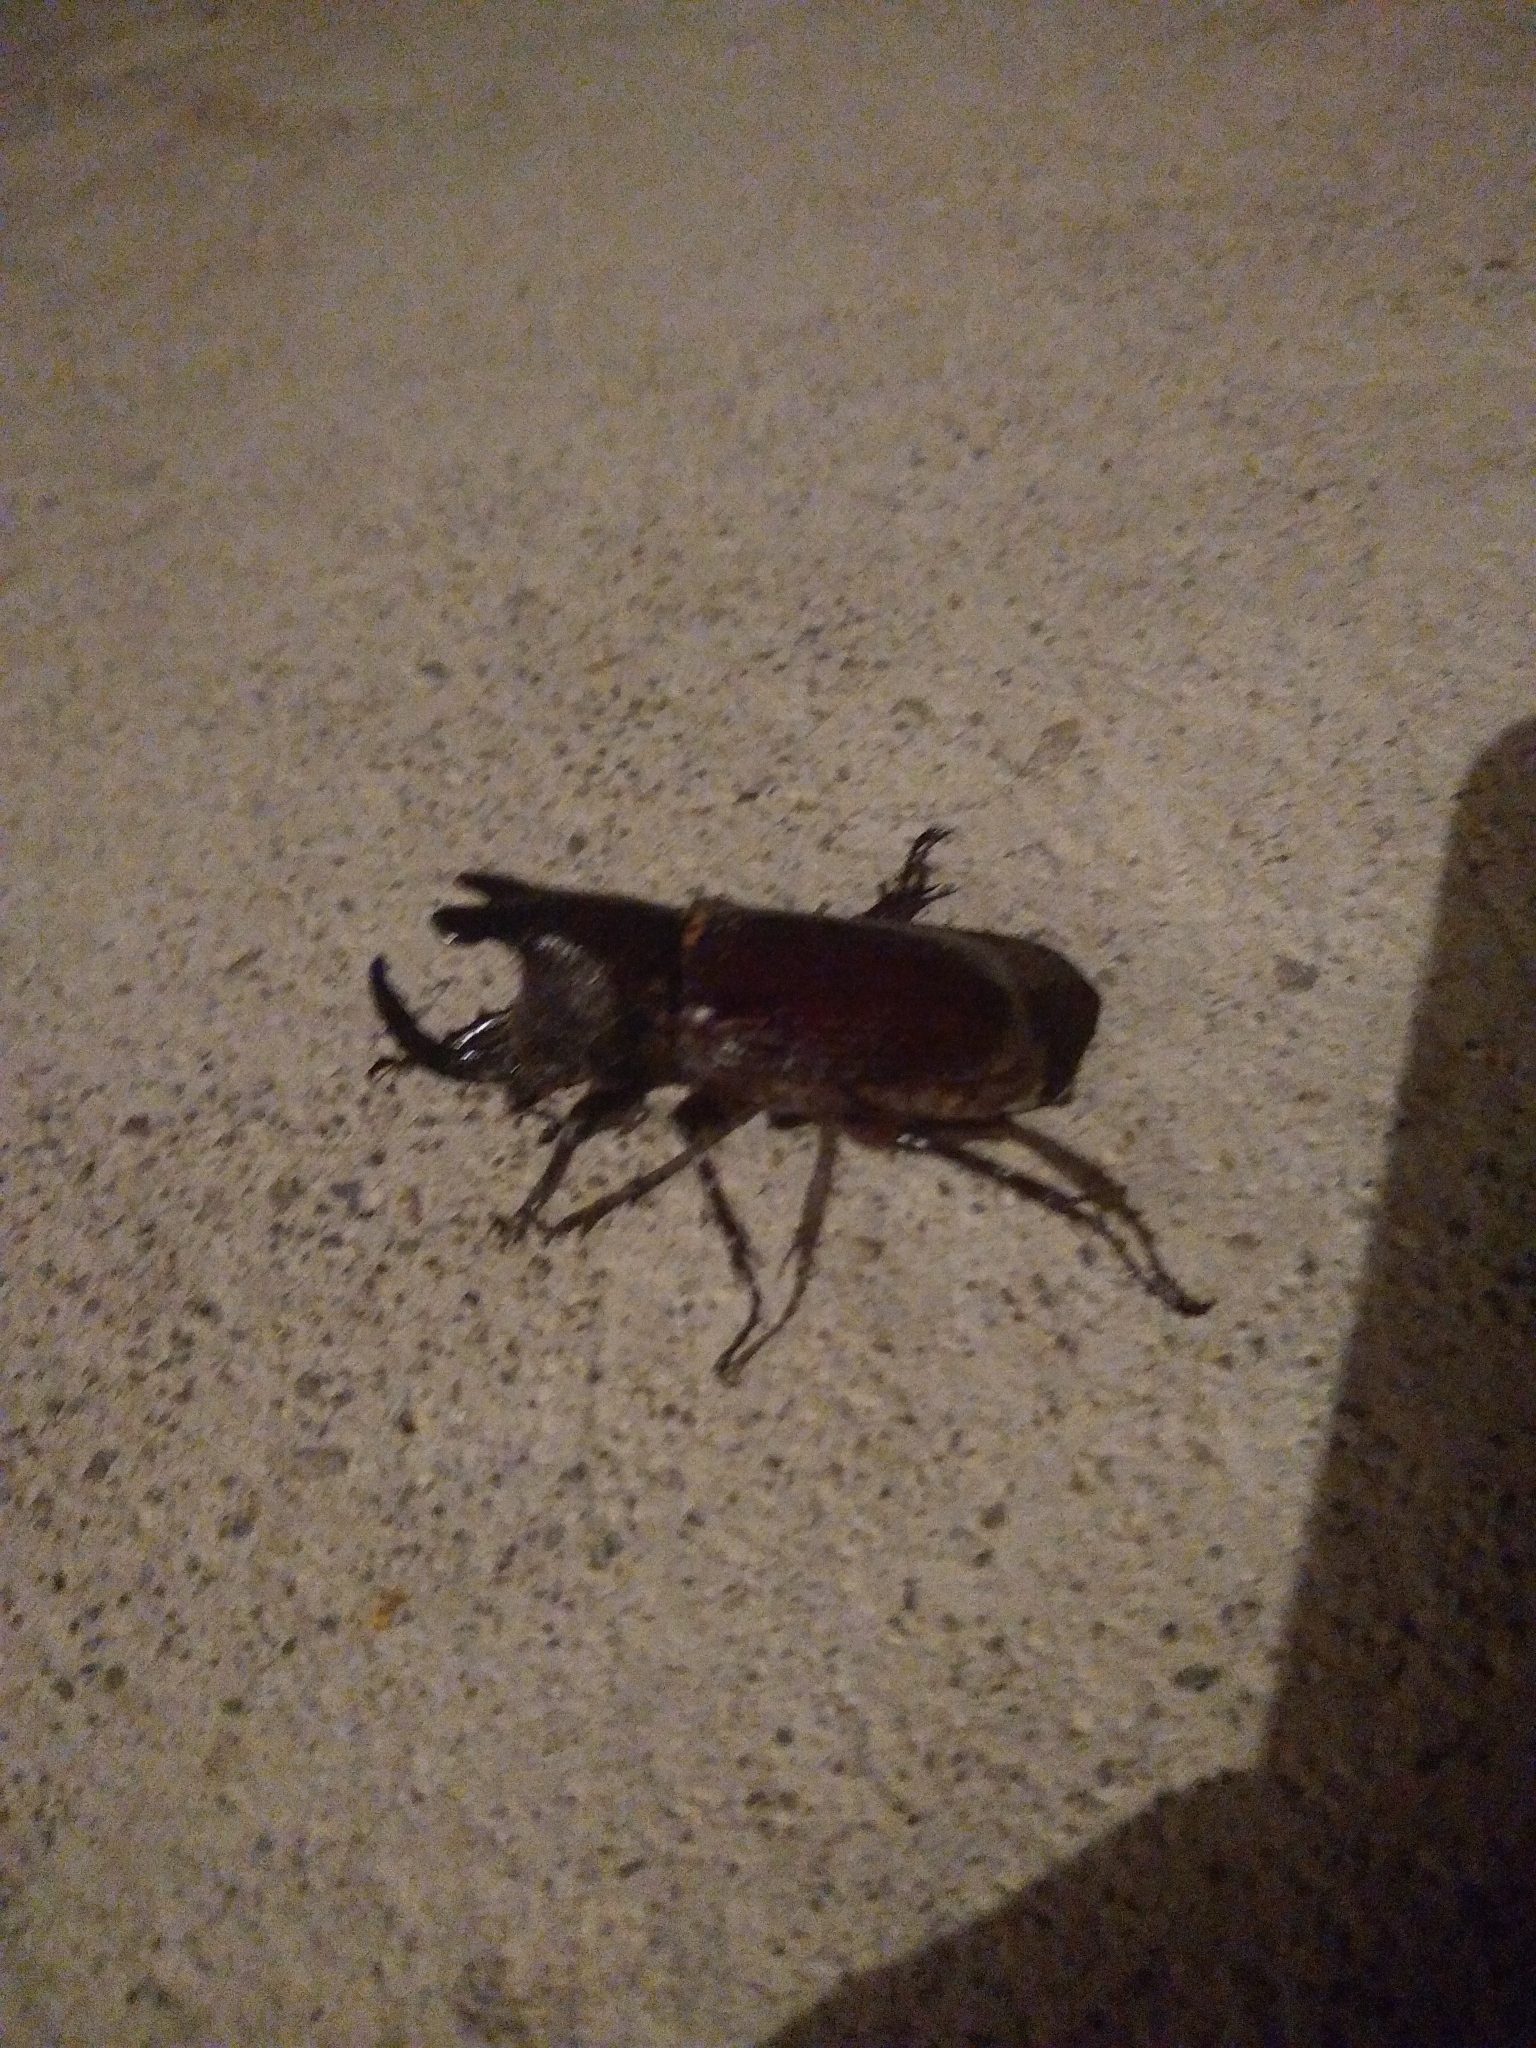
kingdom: Animalia
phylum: Arthropoda
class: Insecta
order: Coleoptera
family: Scarabaeidae
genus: Coelosis
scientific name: Coelosis biloba
